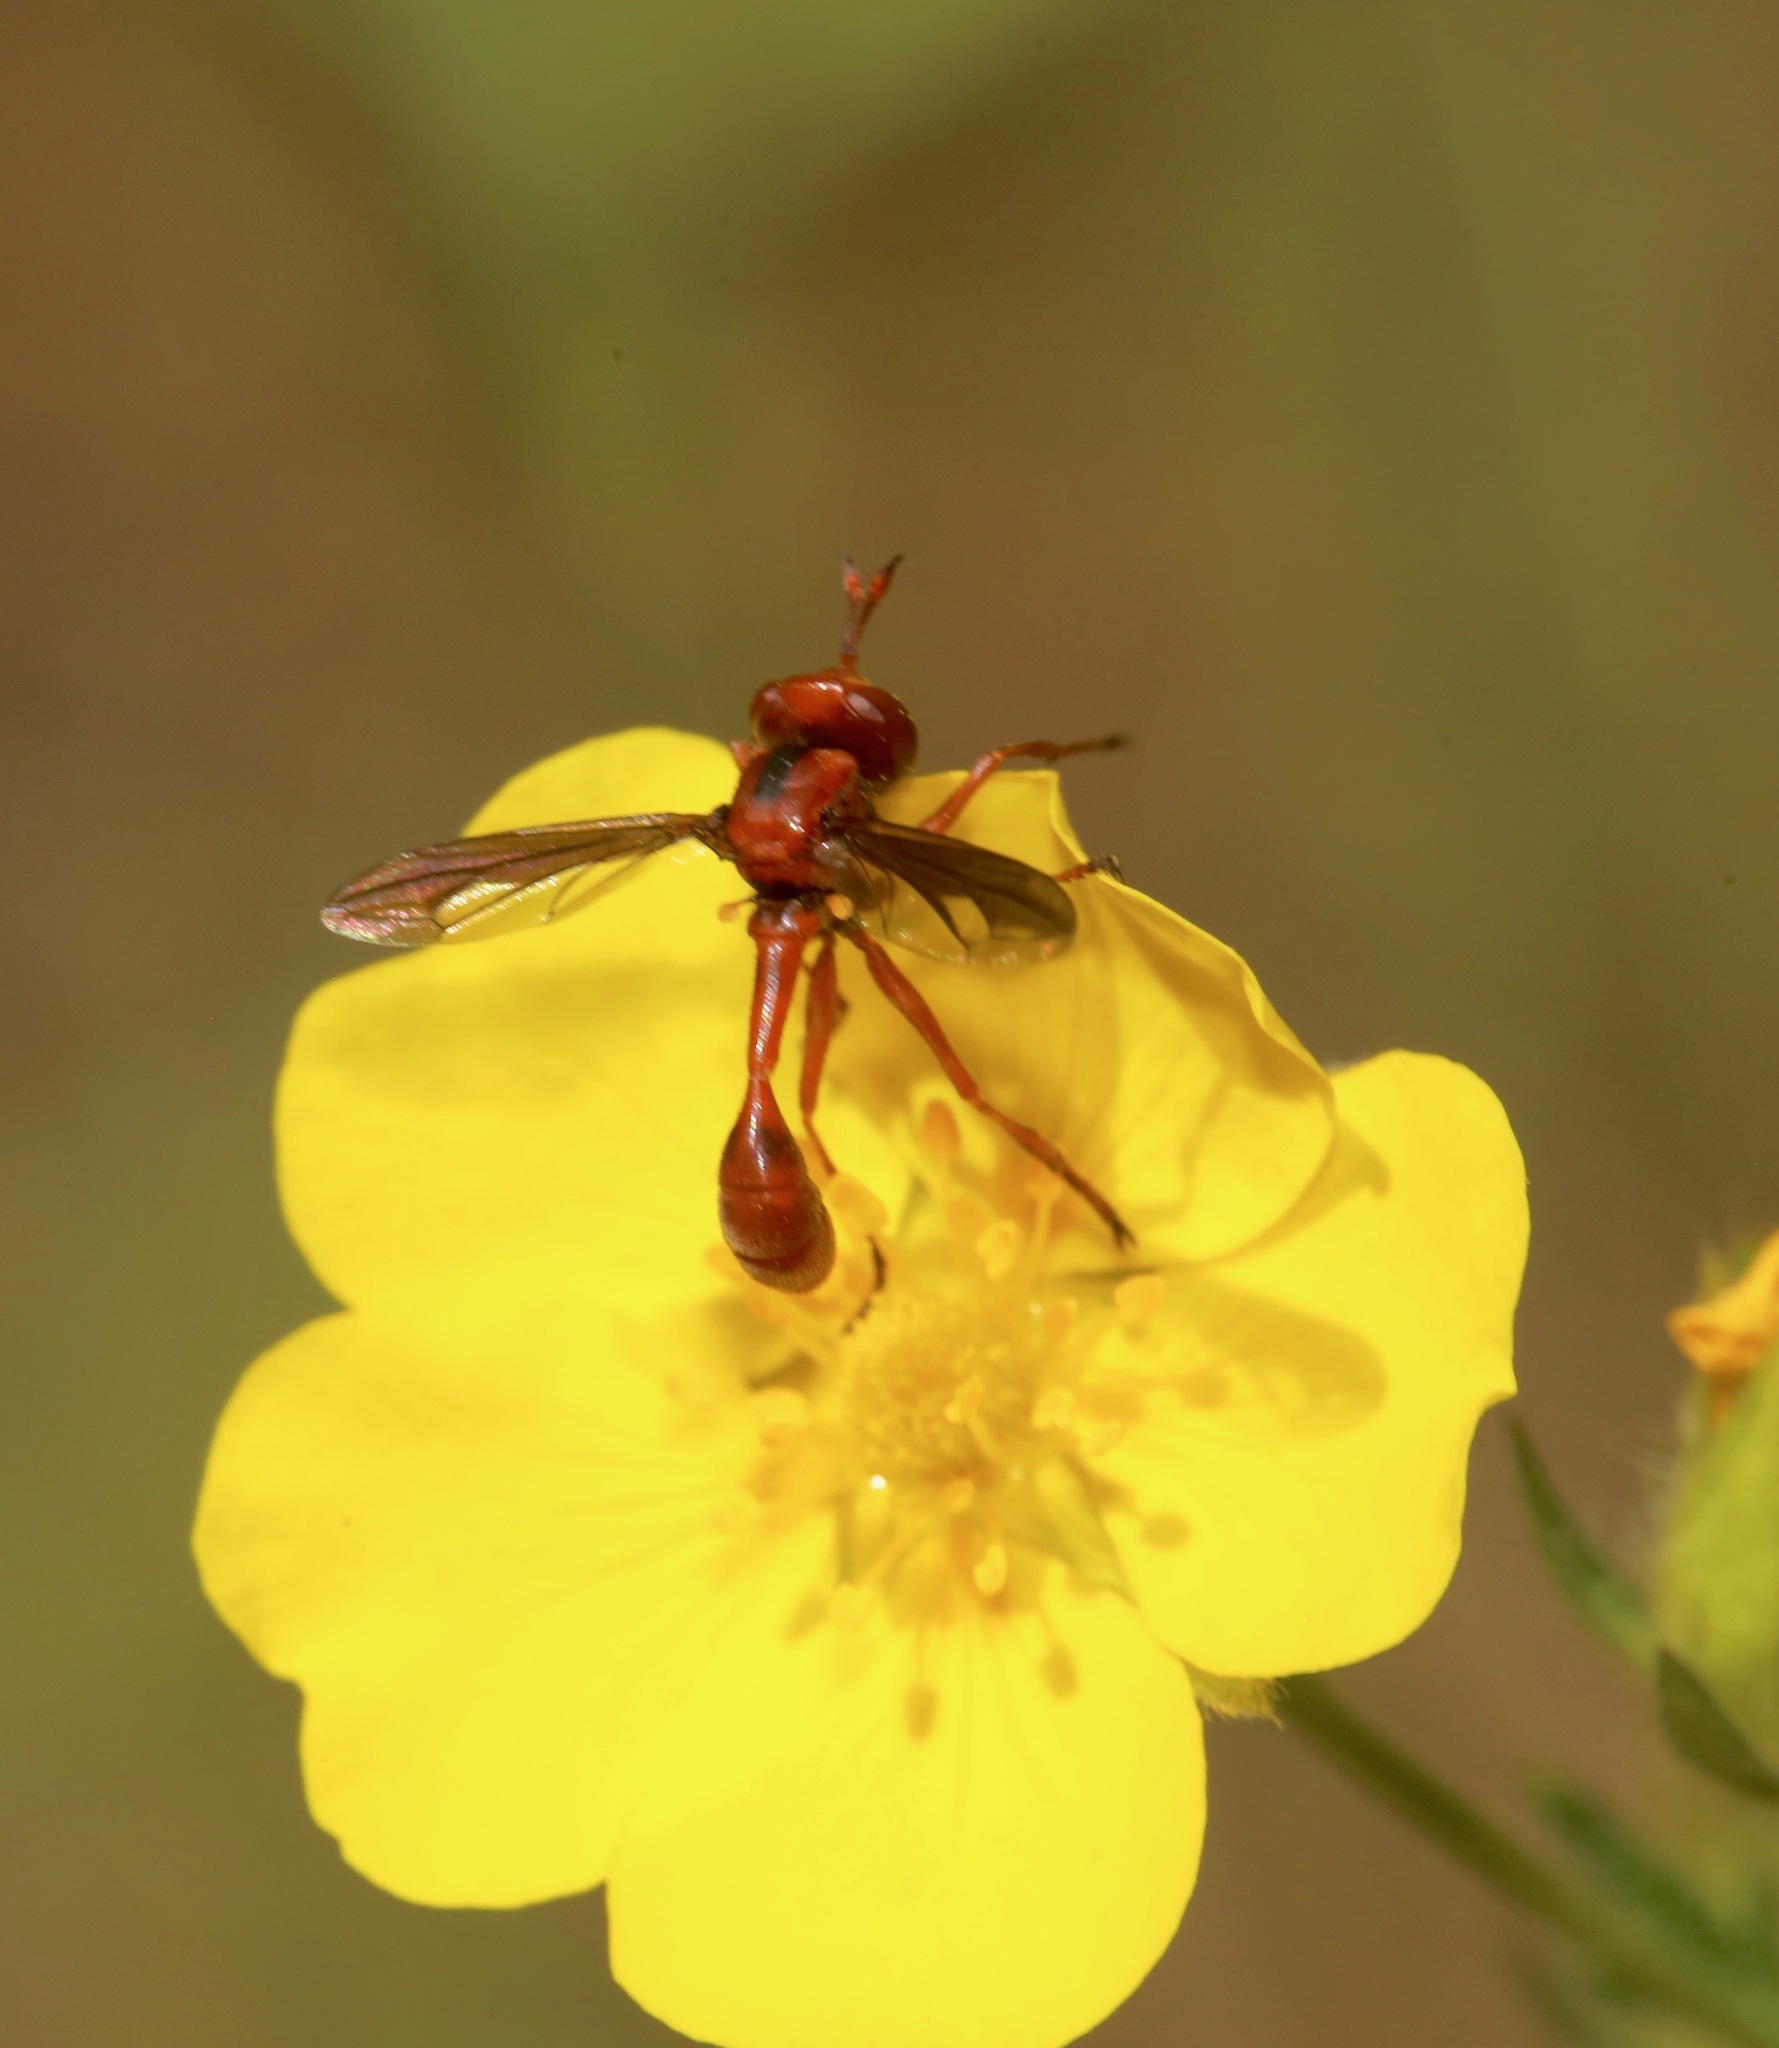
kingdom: Animalia
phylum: Arthropoda
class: Insecta
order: Diptera
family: Conopidae
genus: Physocephala
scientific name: Physocephala burgessi
